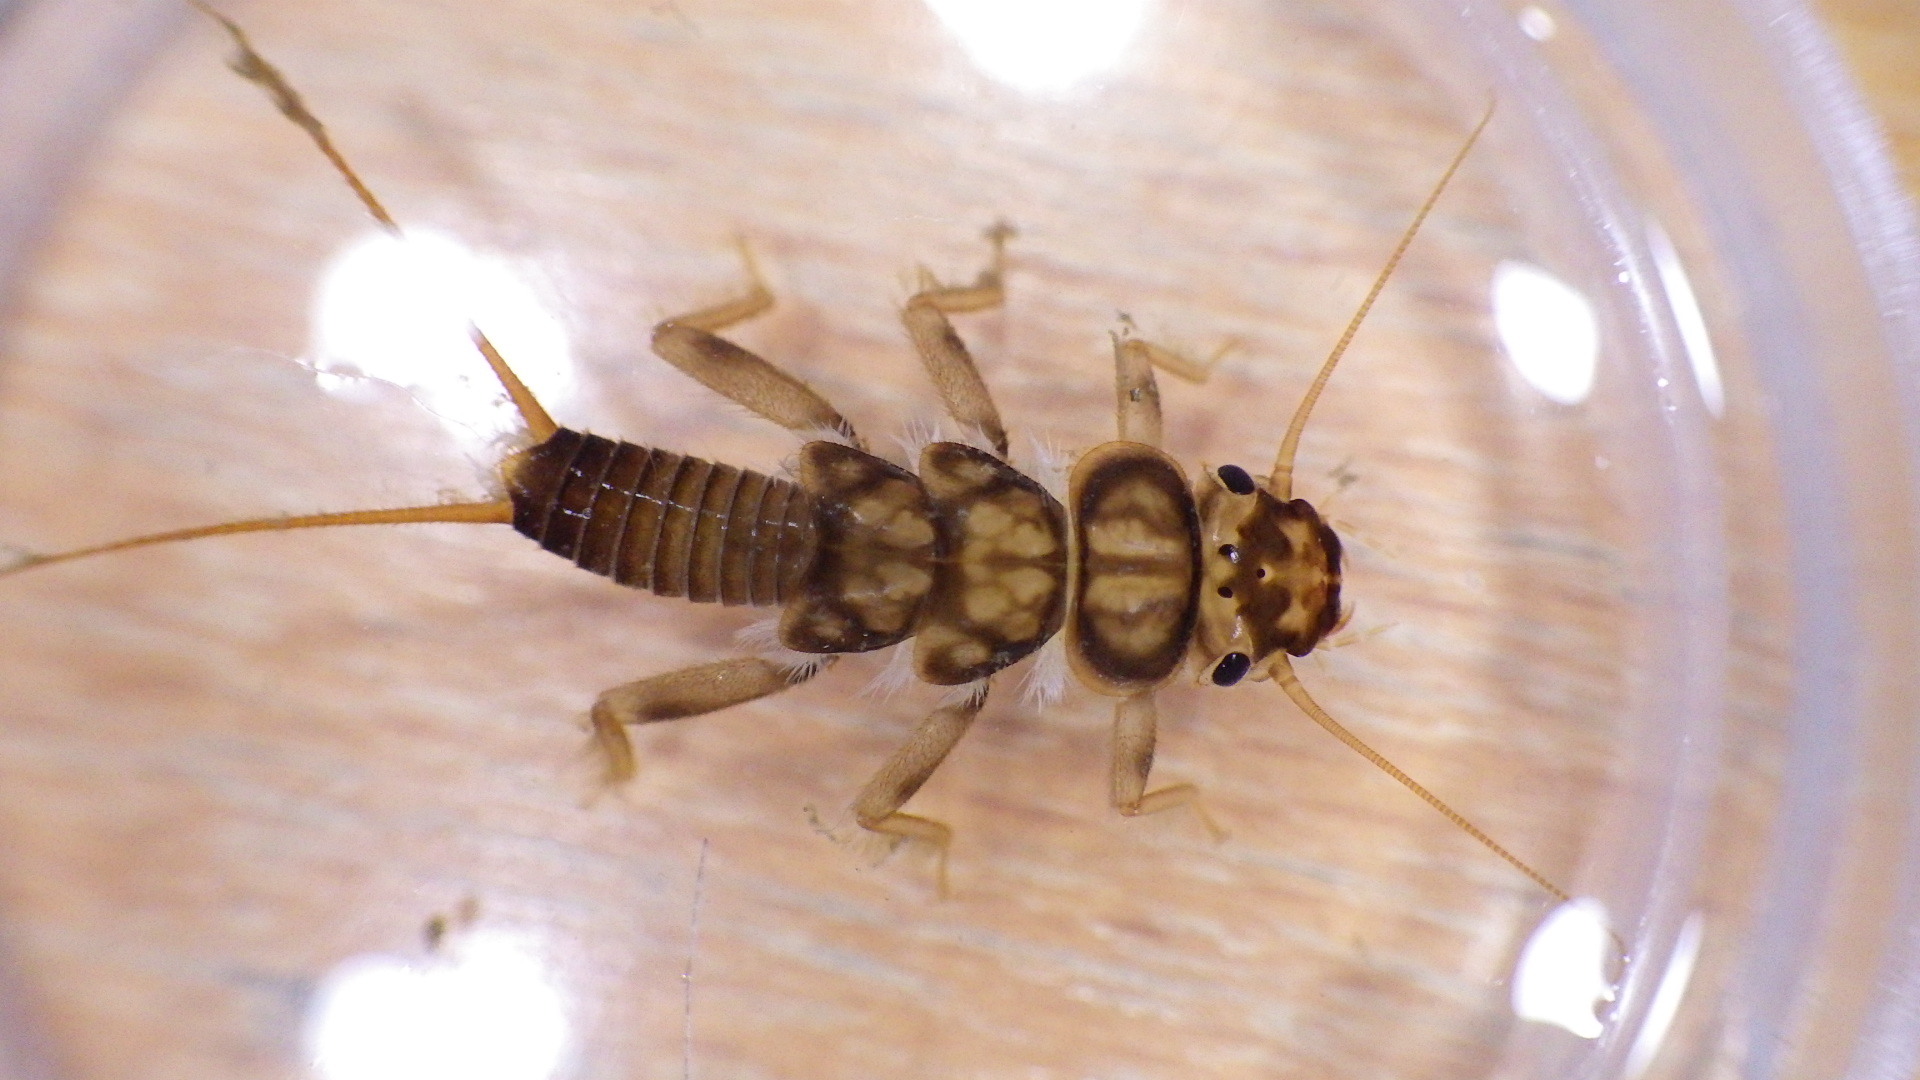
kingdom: Animalia
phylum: Arthropoda
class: Insecta
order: Plecoptera
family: Perlidae
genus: Eccoptura
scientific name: Eccoptura xanthenes
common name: Yellow stone
